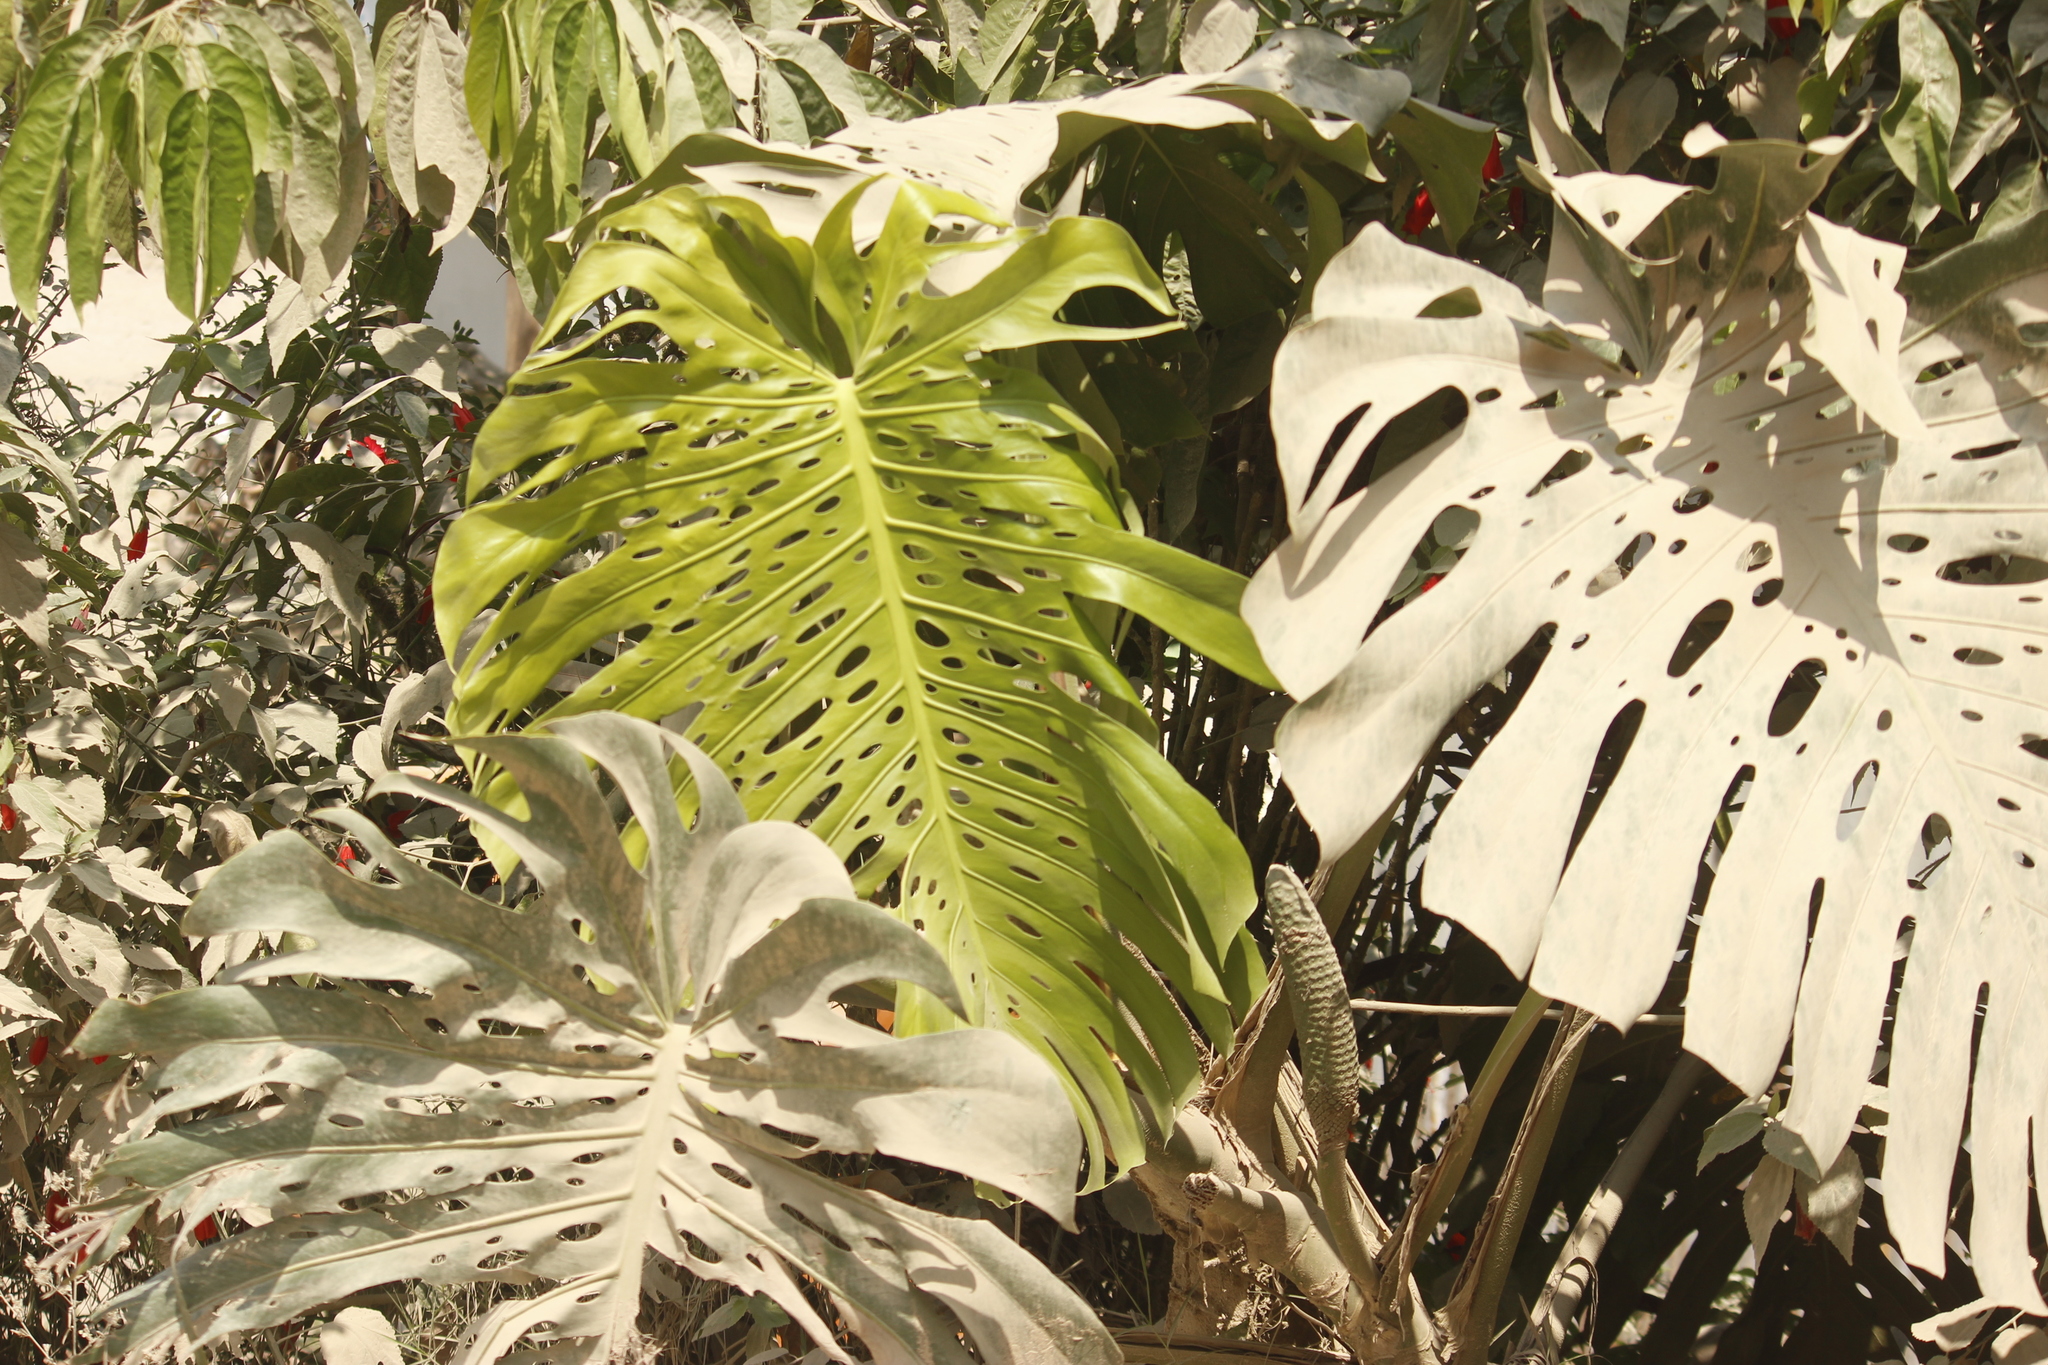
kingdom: Plantae
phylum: Tracheophyta
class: Liliopsida
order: Alismatales
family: Araceae
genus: Monstera
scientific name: Monstera deliciosa
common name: Cut-leaf-philodendron
